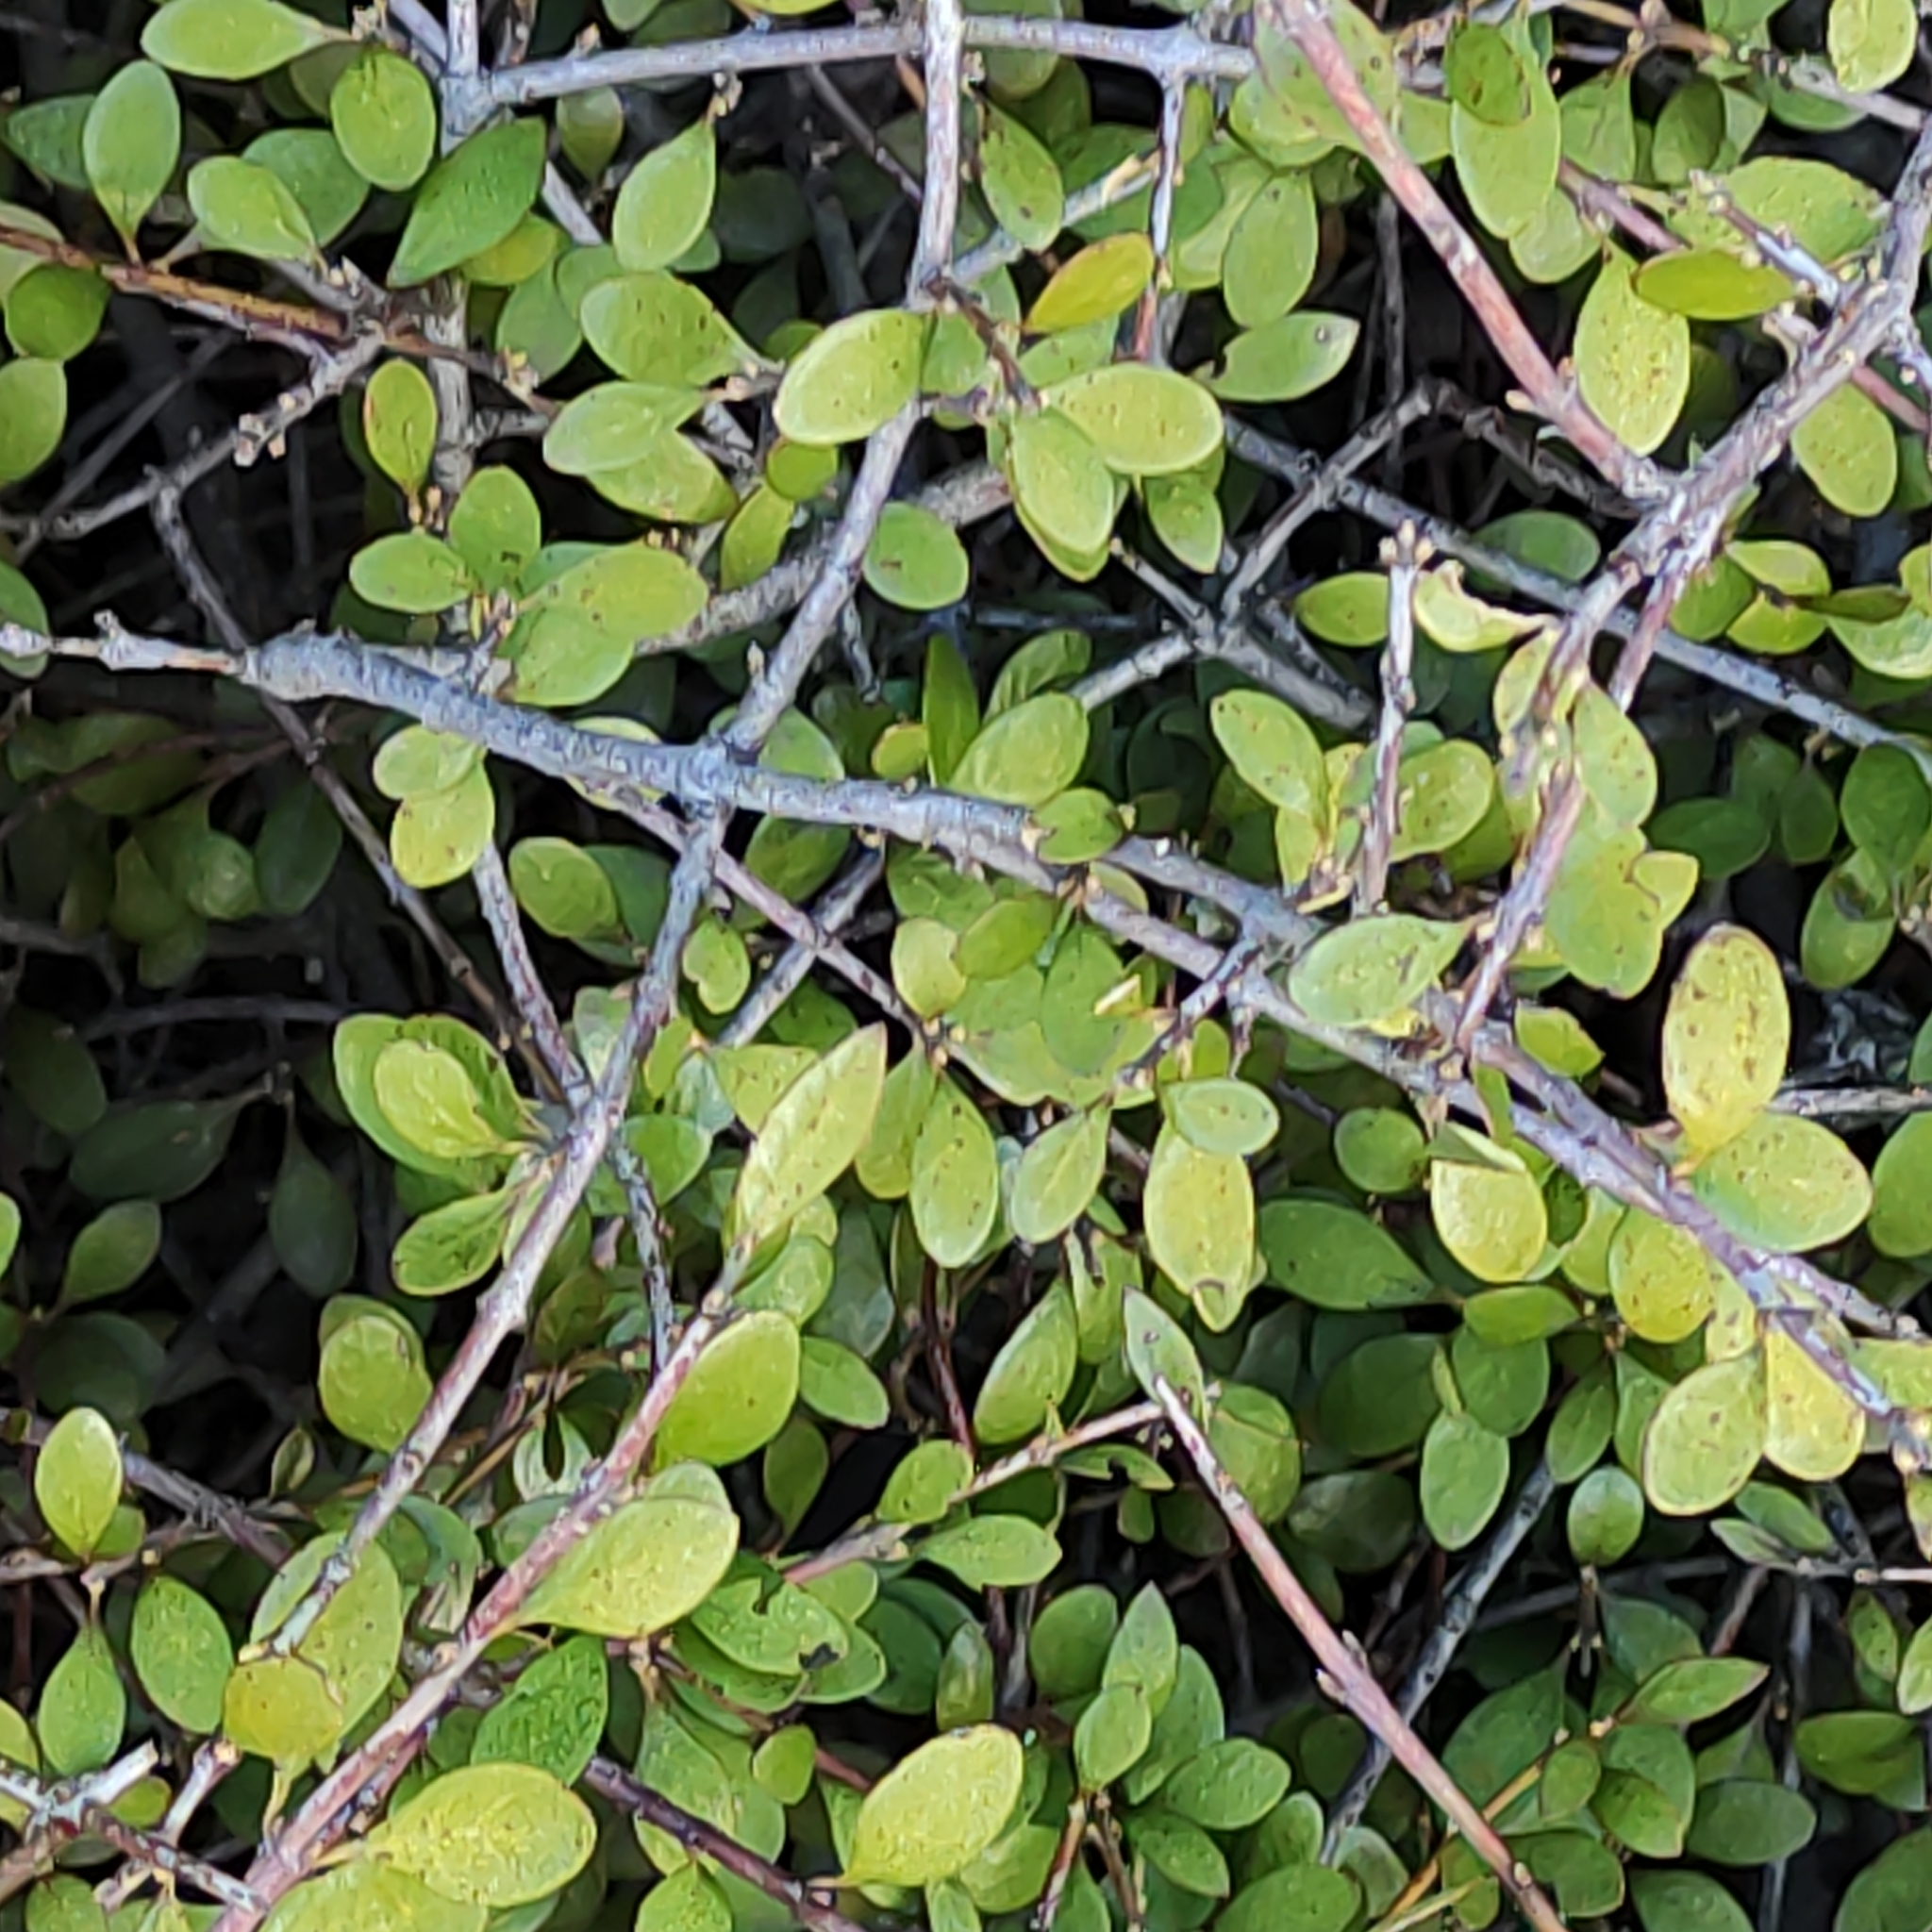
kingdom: Plantae
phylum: Tracheophyta
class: Magnoliopsida
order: Oxalidales
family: Elaeocarpaceae
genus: Aristotelia
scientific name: Aristotelia fruticosa
